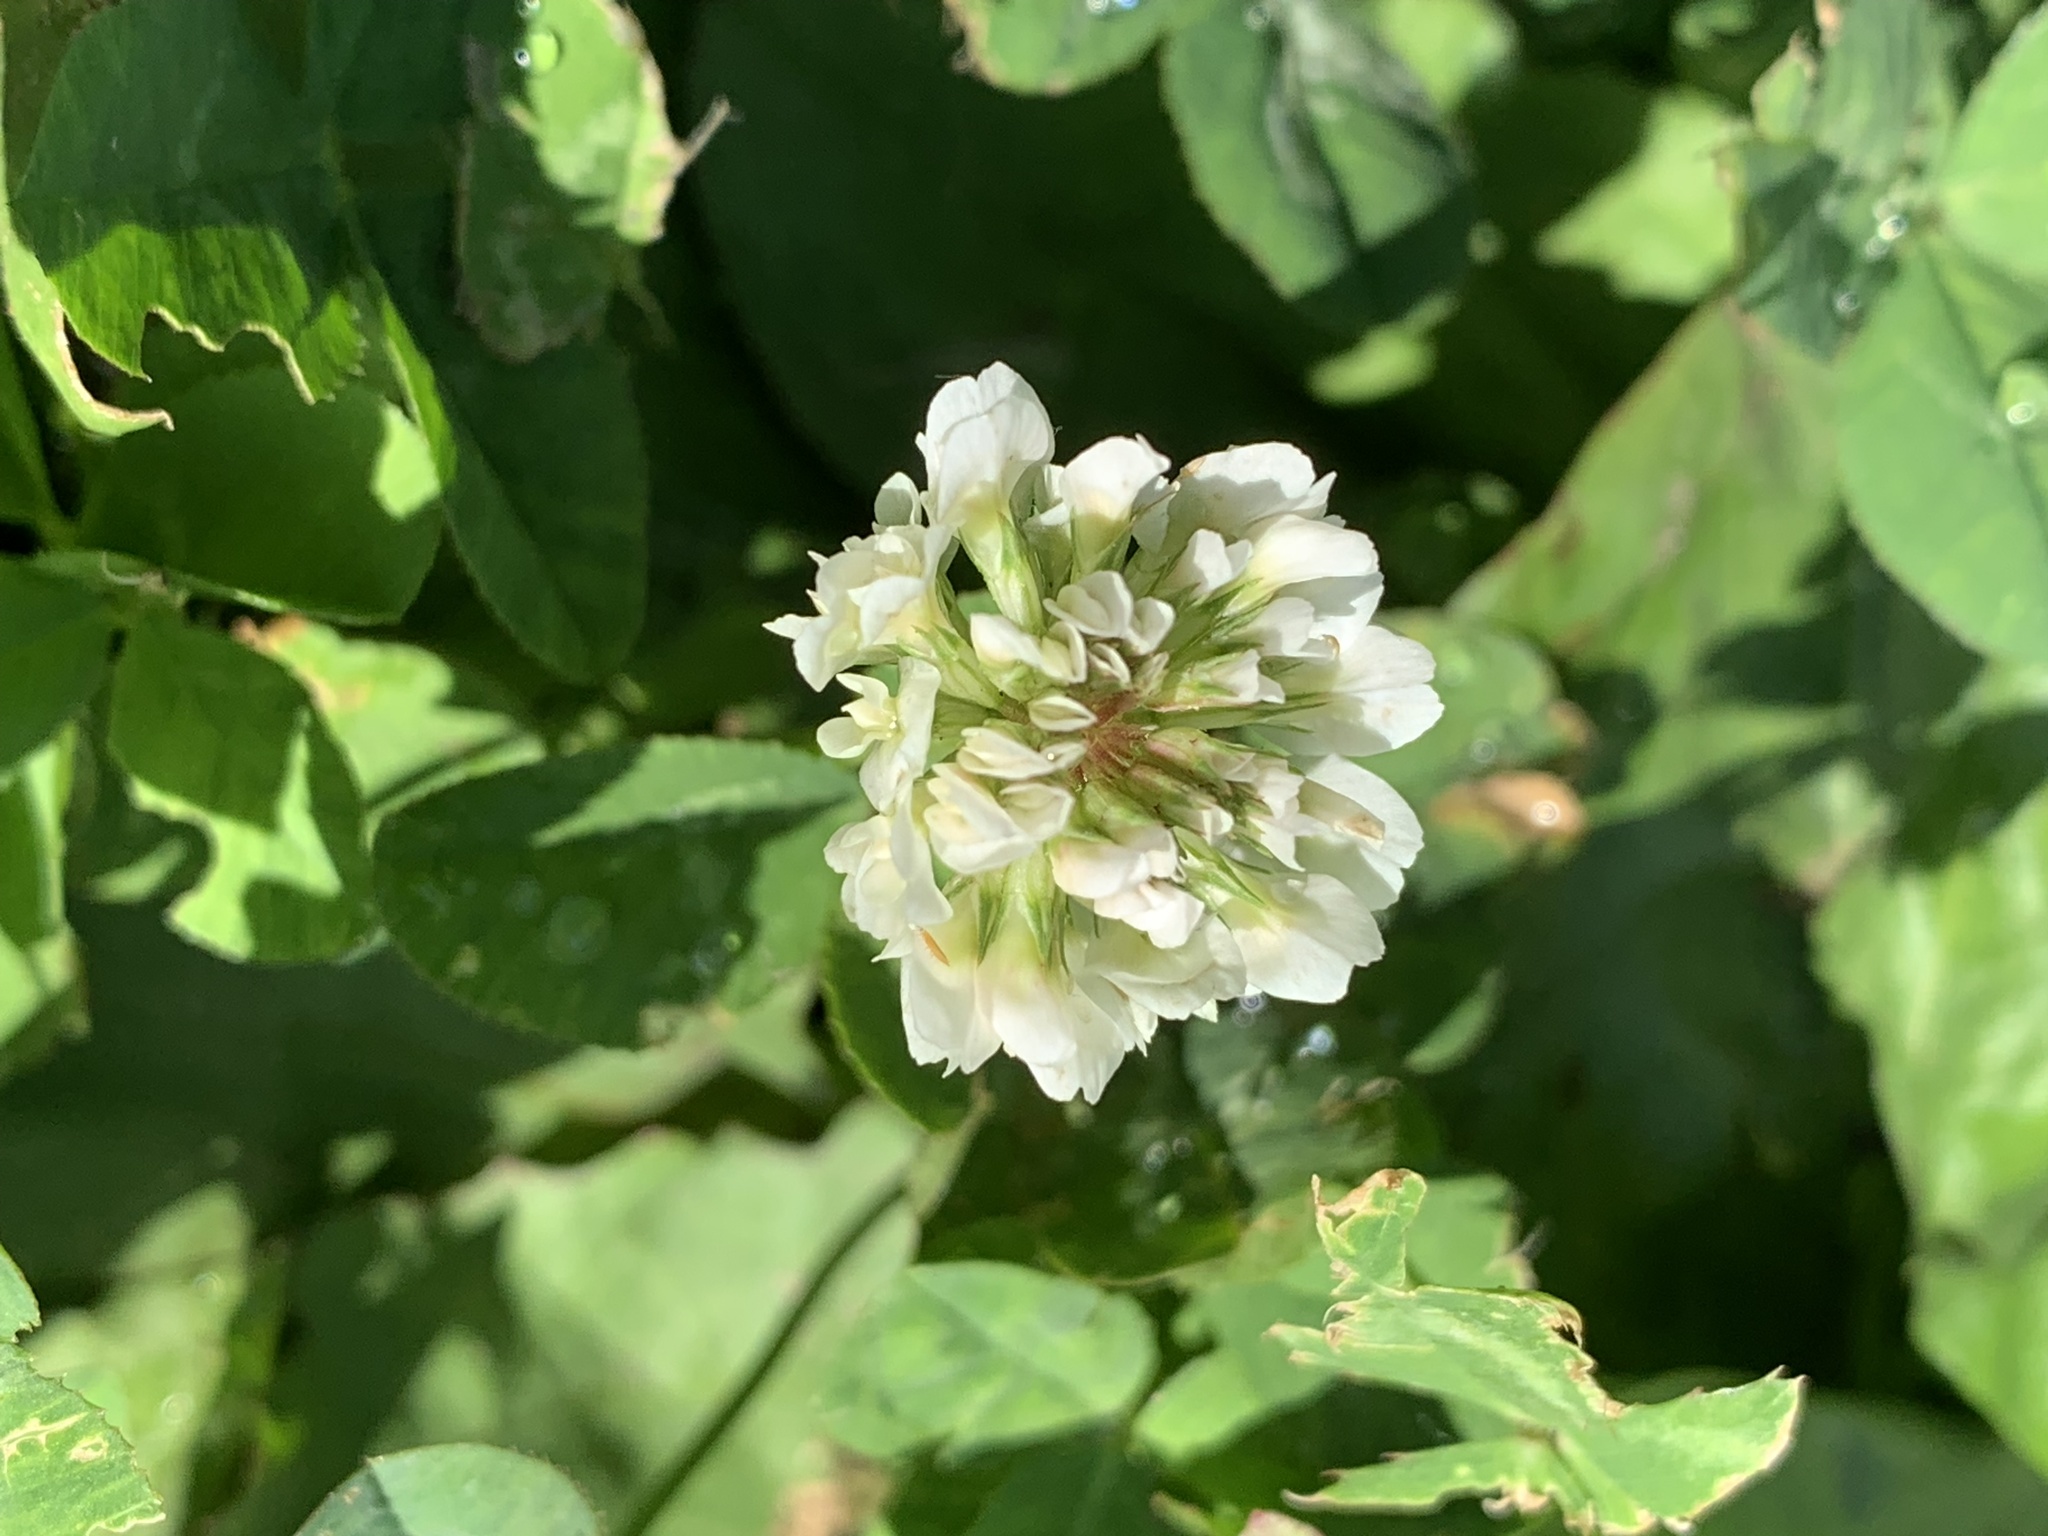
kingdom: Plantae
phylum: Tracheophyta
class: Magnoliopsida
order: Fabales
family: Fabaceae
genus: Trifolium
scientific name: Trifolium repens
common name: White clover
